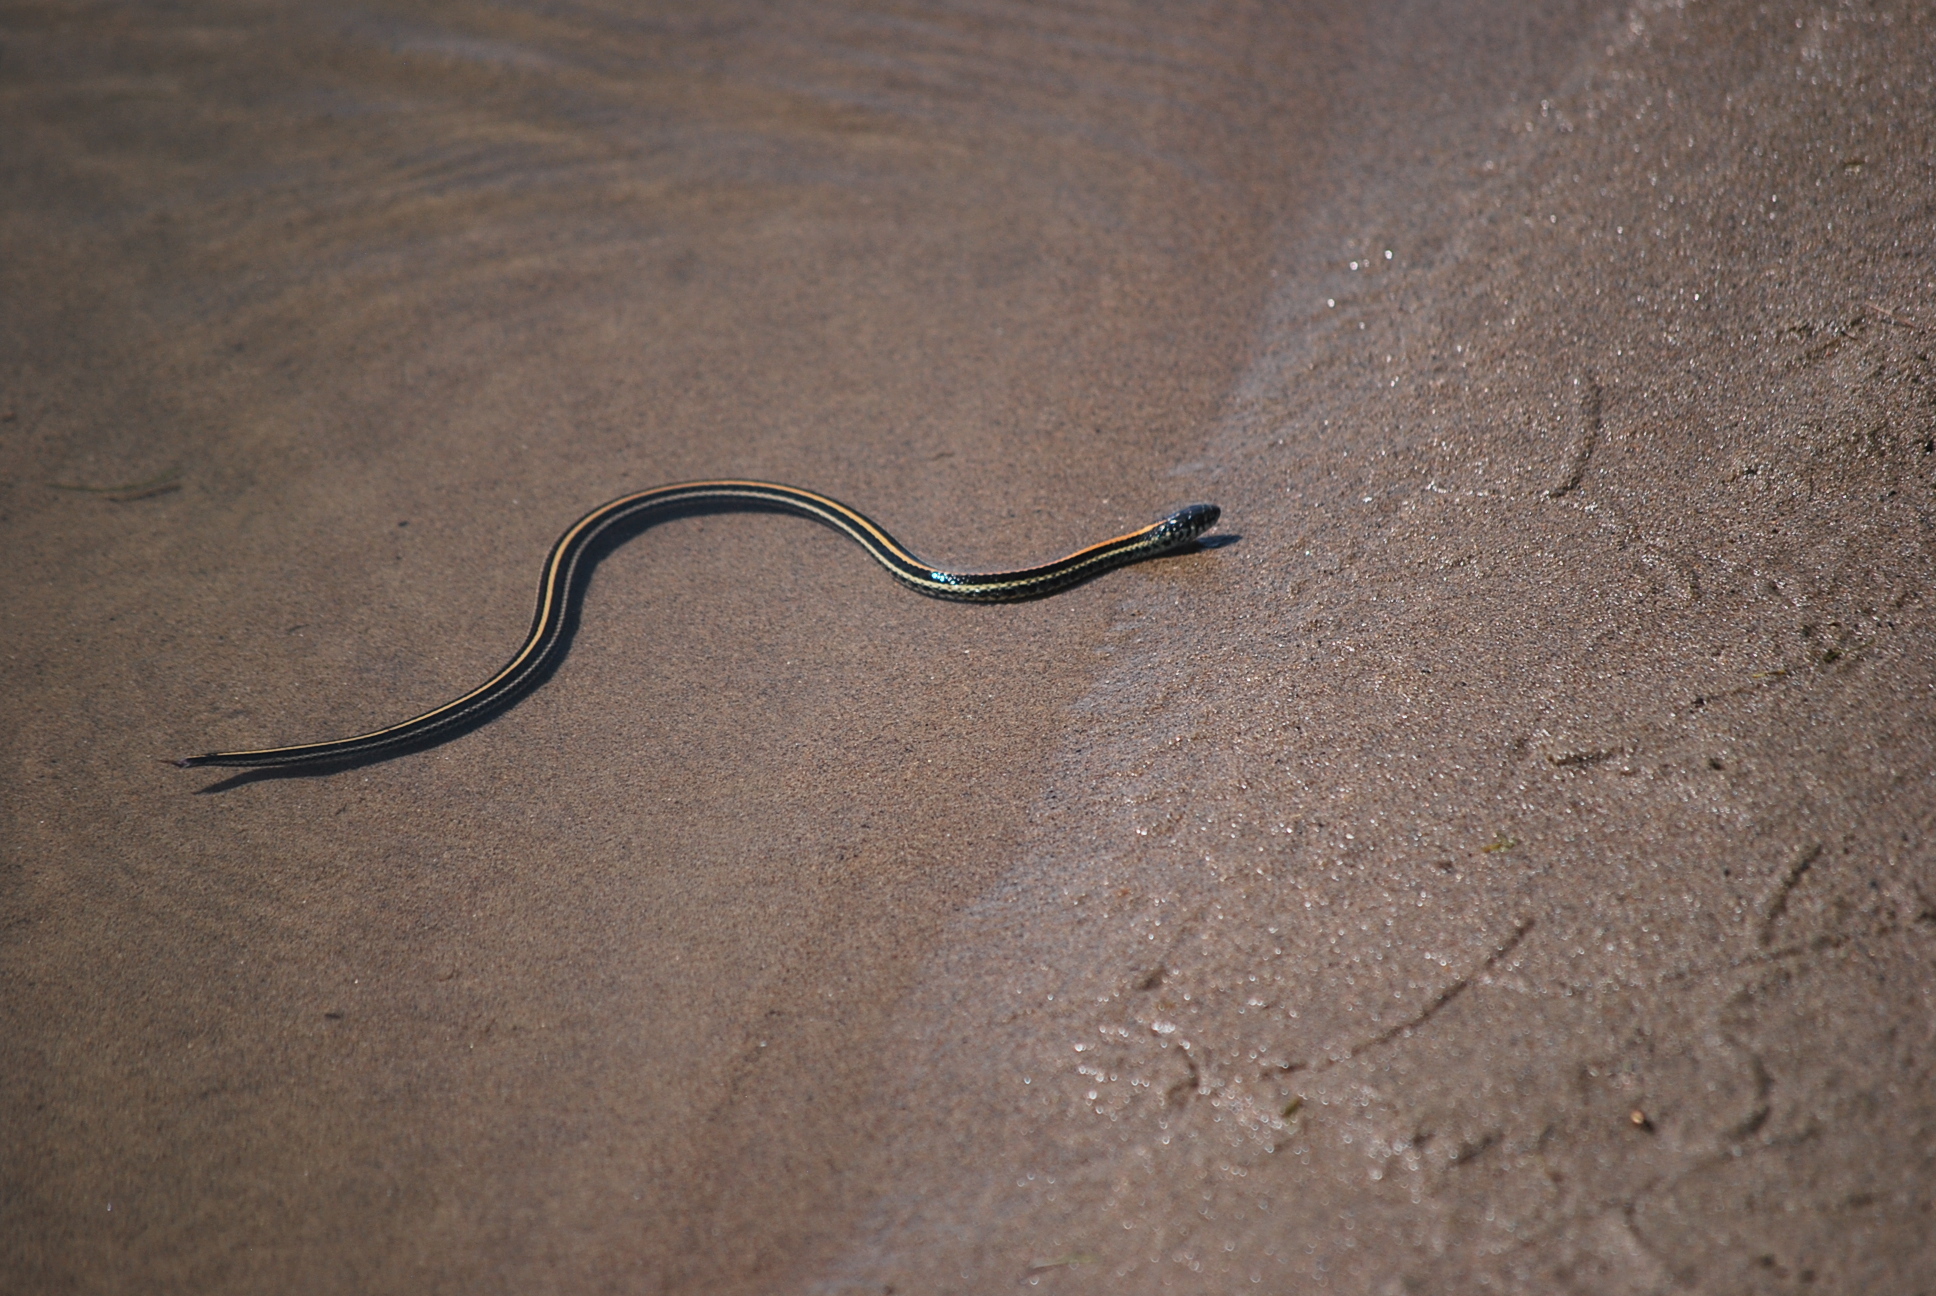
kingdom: Animalia
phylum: Chordata
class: Squamata
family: Colubridae
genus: Thamnophis
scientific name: Thamnophis radix
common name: Plains garter snake
